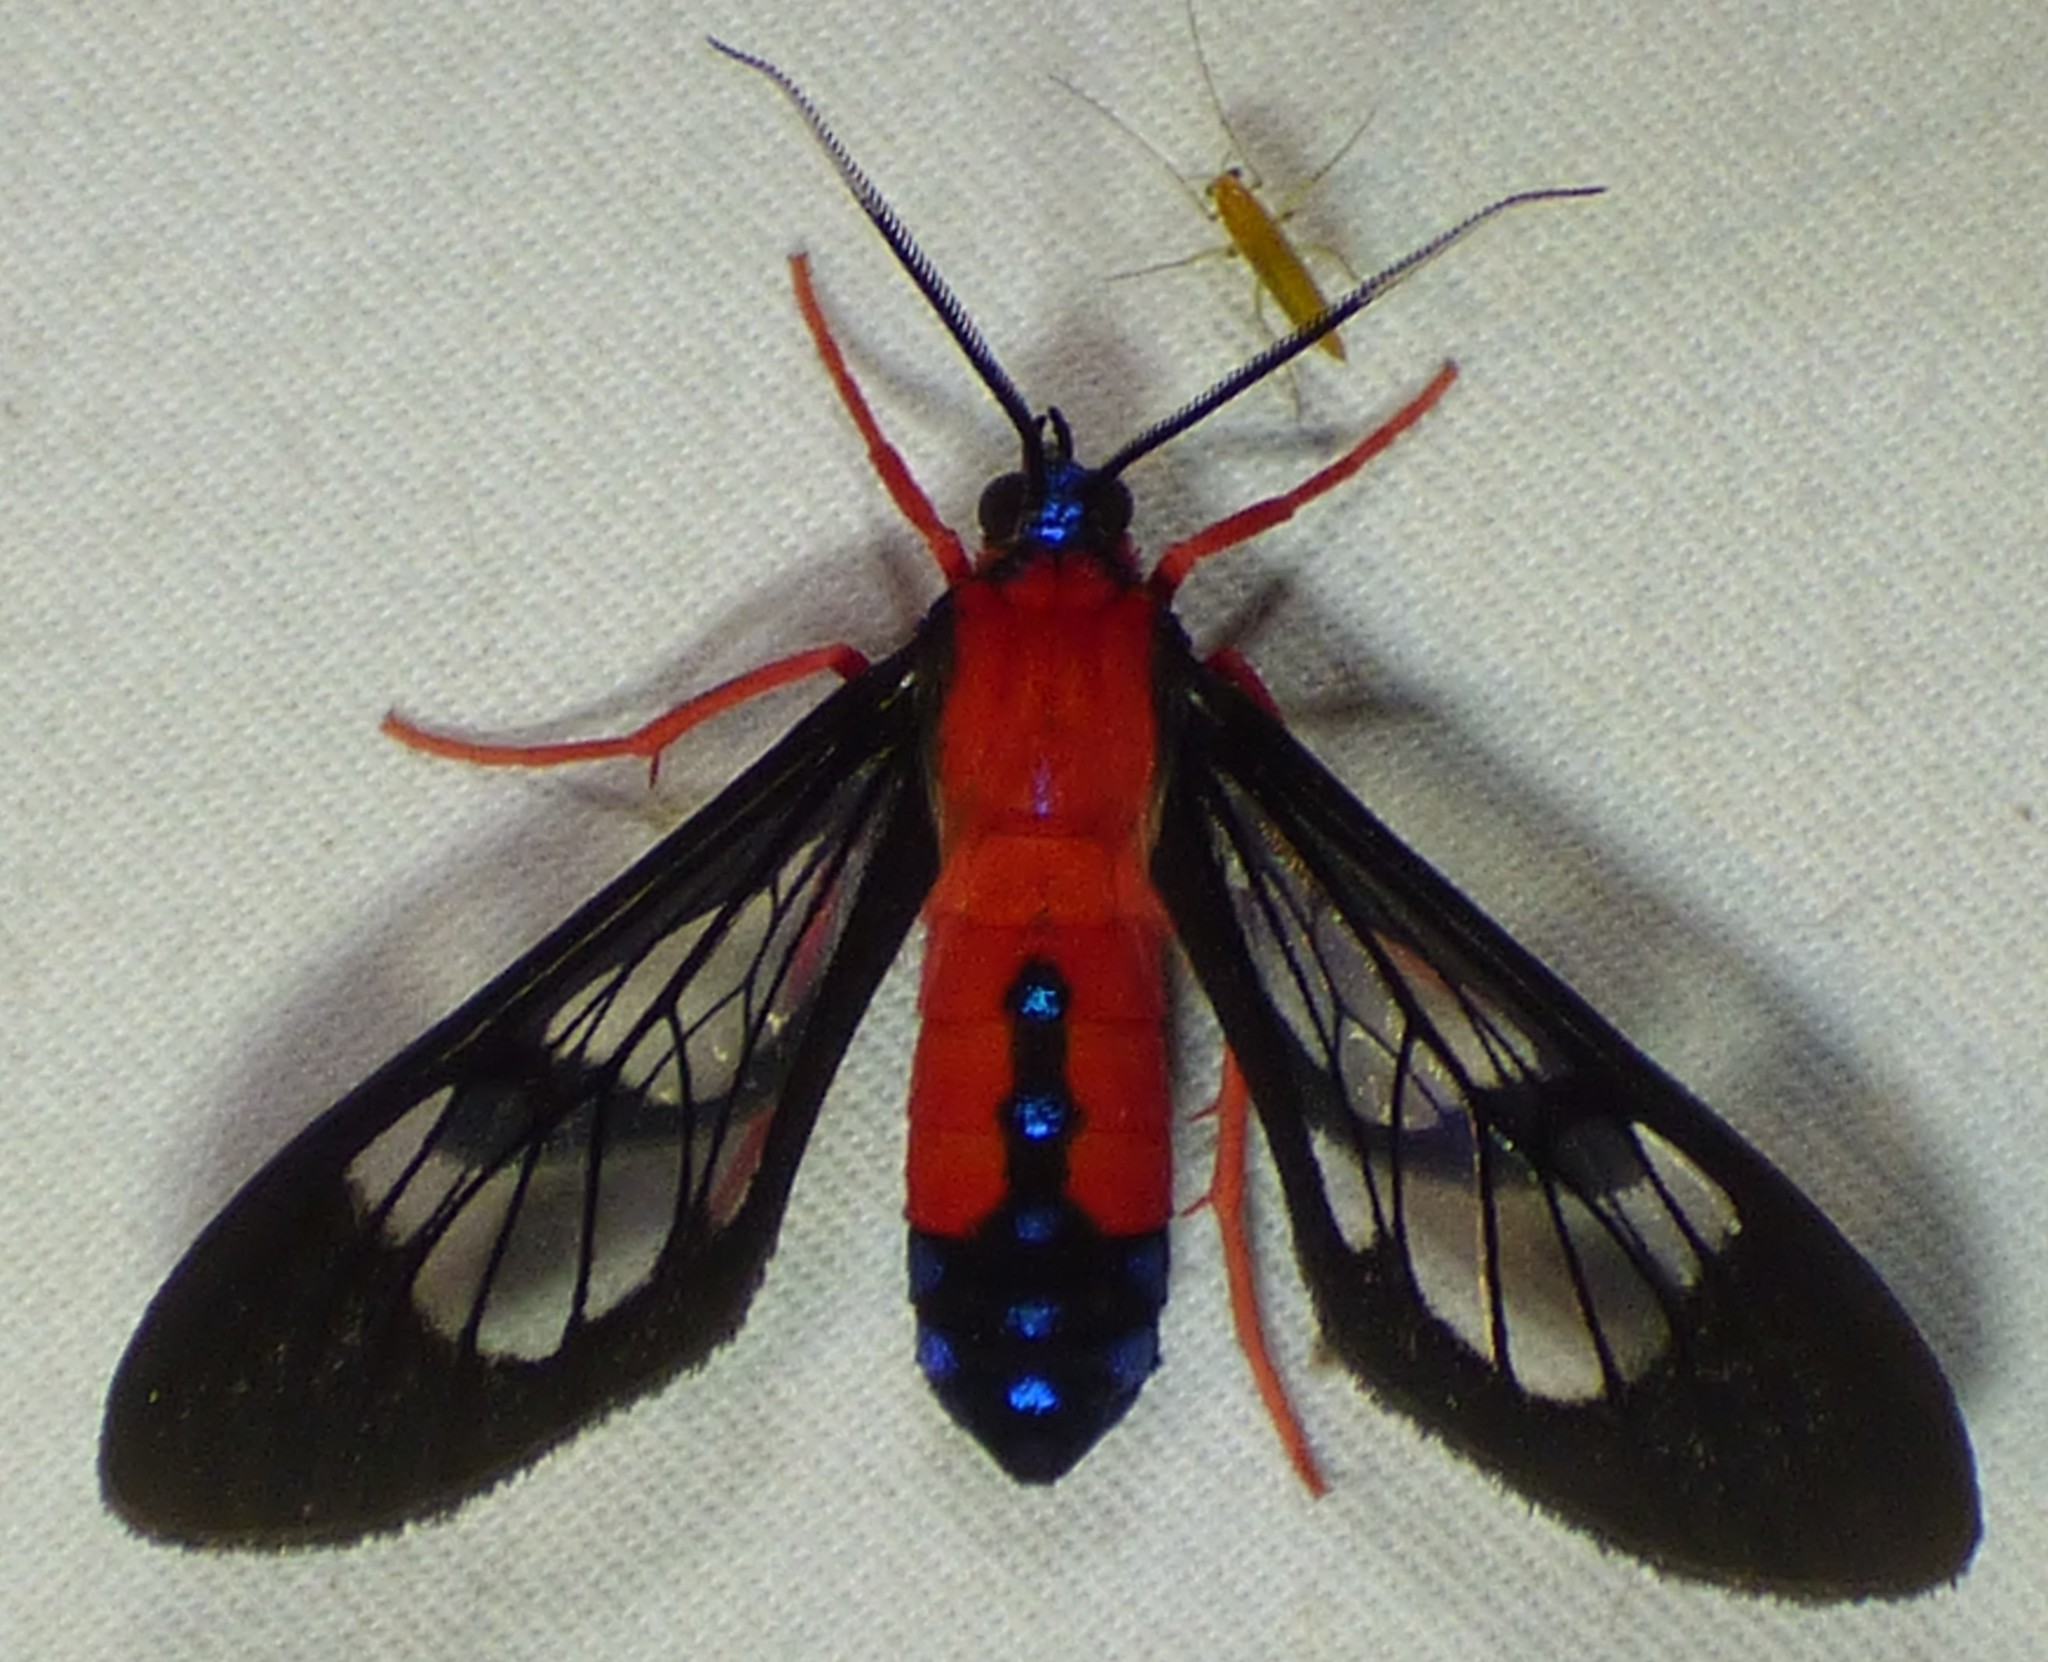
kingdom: Animalia
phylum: Arthropoda
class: Insecta
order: Lepidoptera
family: Erebidae
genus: Cosmosoma
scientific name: Cosmosoma myrodora
